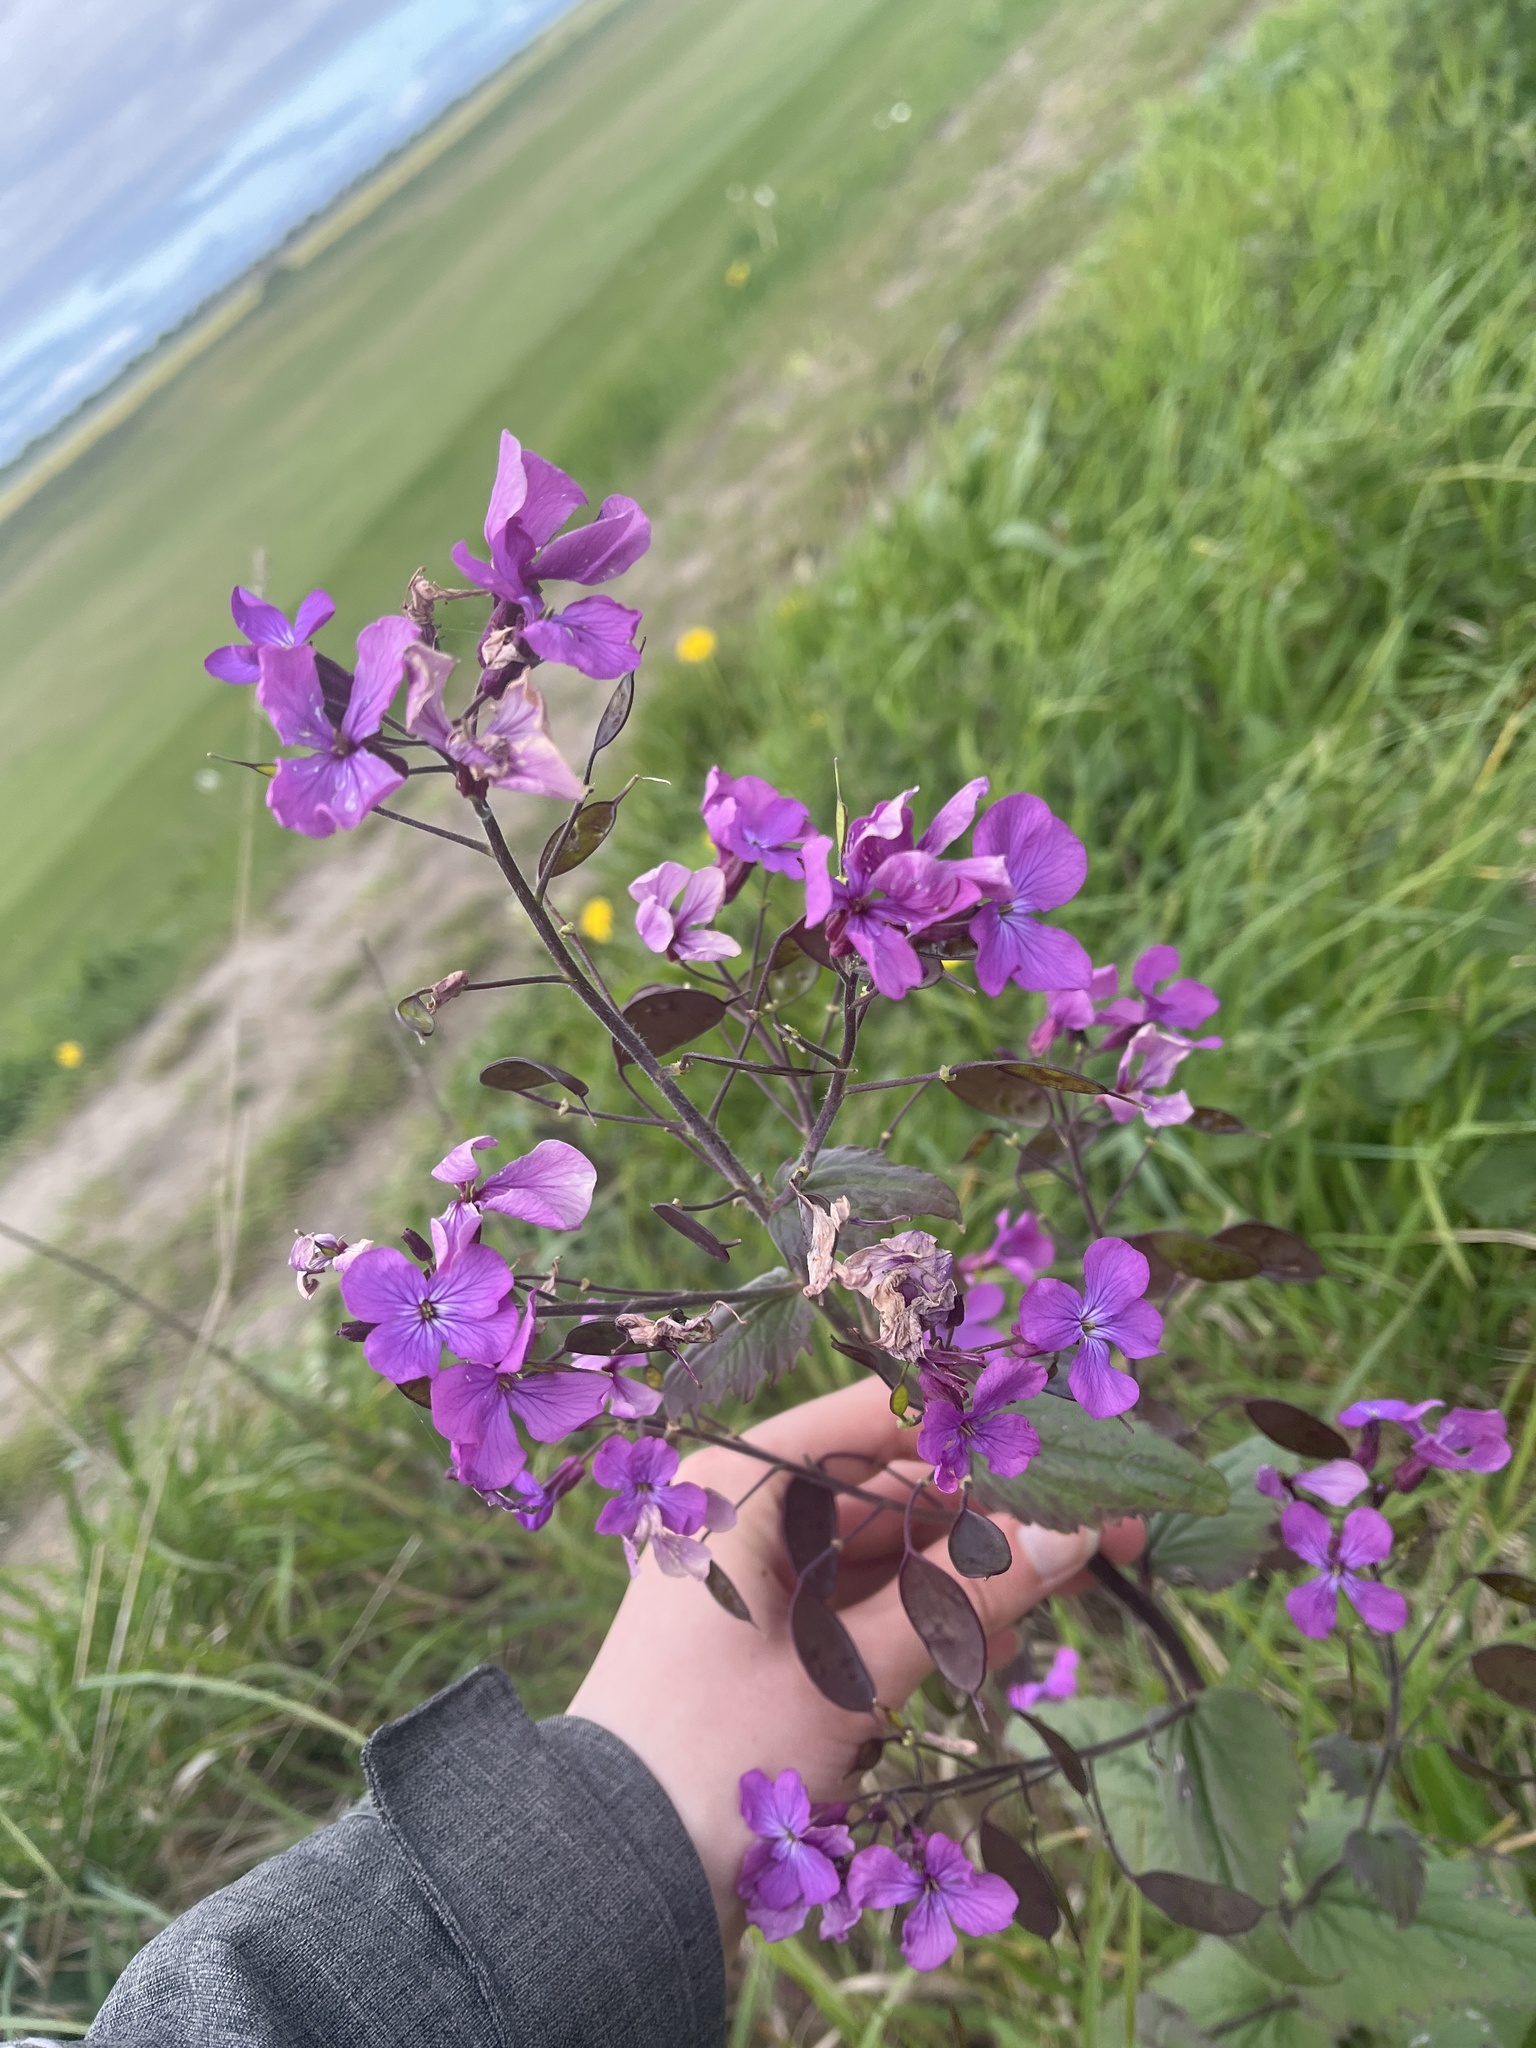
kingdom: Plantae
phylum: Tracheophyta
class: Magnoliopsida
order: Brassicales
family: Brassicaceae
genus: Lunaria
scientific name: Lunaria annua
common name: Honesty
